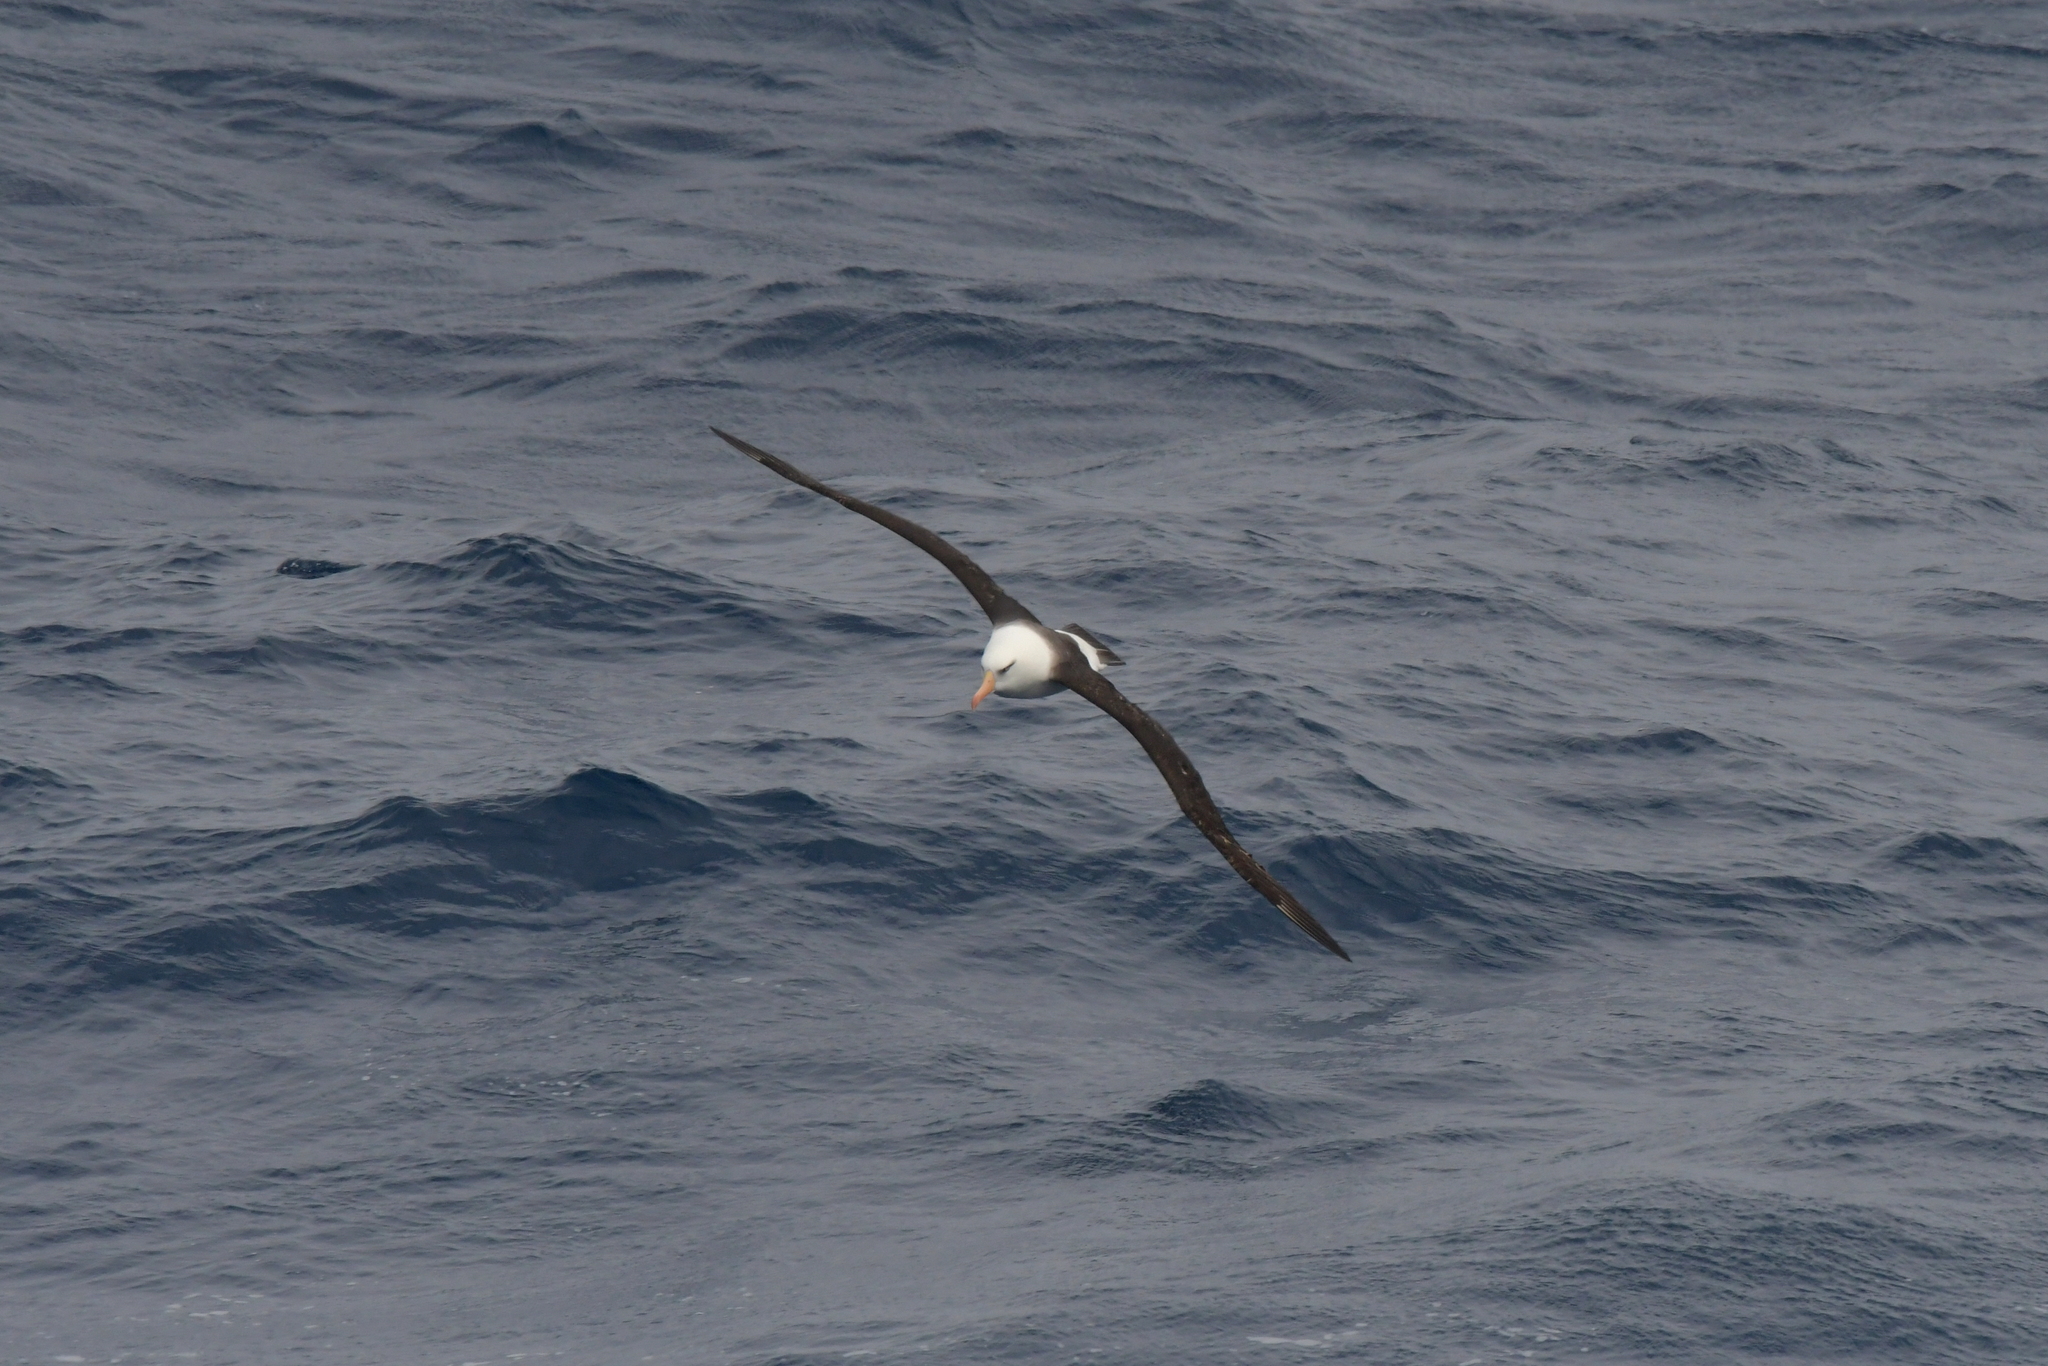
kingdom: Animalia
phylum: Chordata
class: Aves
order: Procellariiformes
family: Diomedeidae
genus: Thalassarche
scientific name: Thalassarche impavida
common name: Campbell albatross
